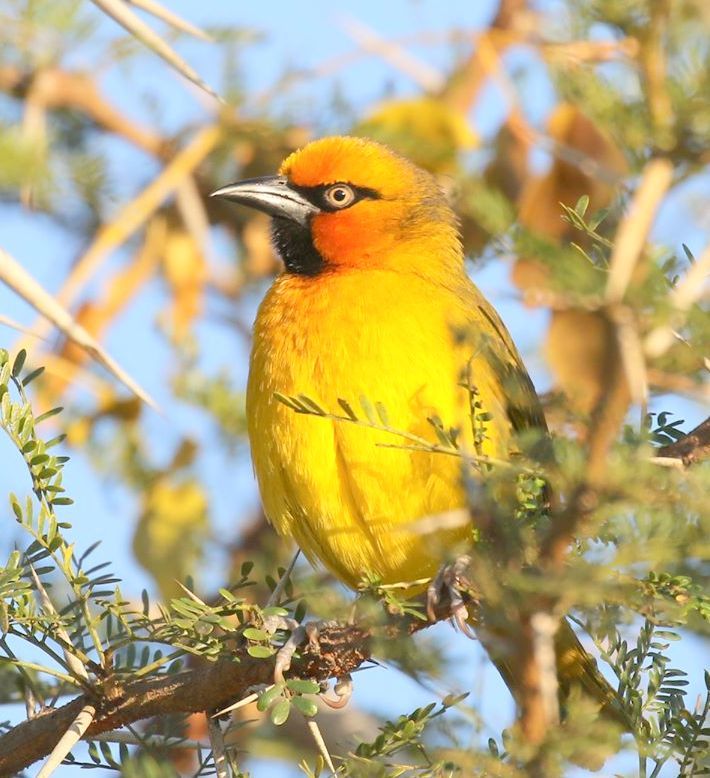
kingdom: Animalia
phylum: Chordata
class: Aves
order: Passeriformes
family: Ploceidae
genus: Ploceus
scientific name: Ploceus ocularis
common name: Spectacled weaver
